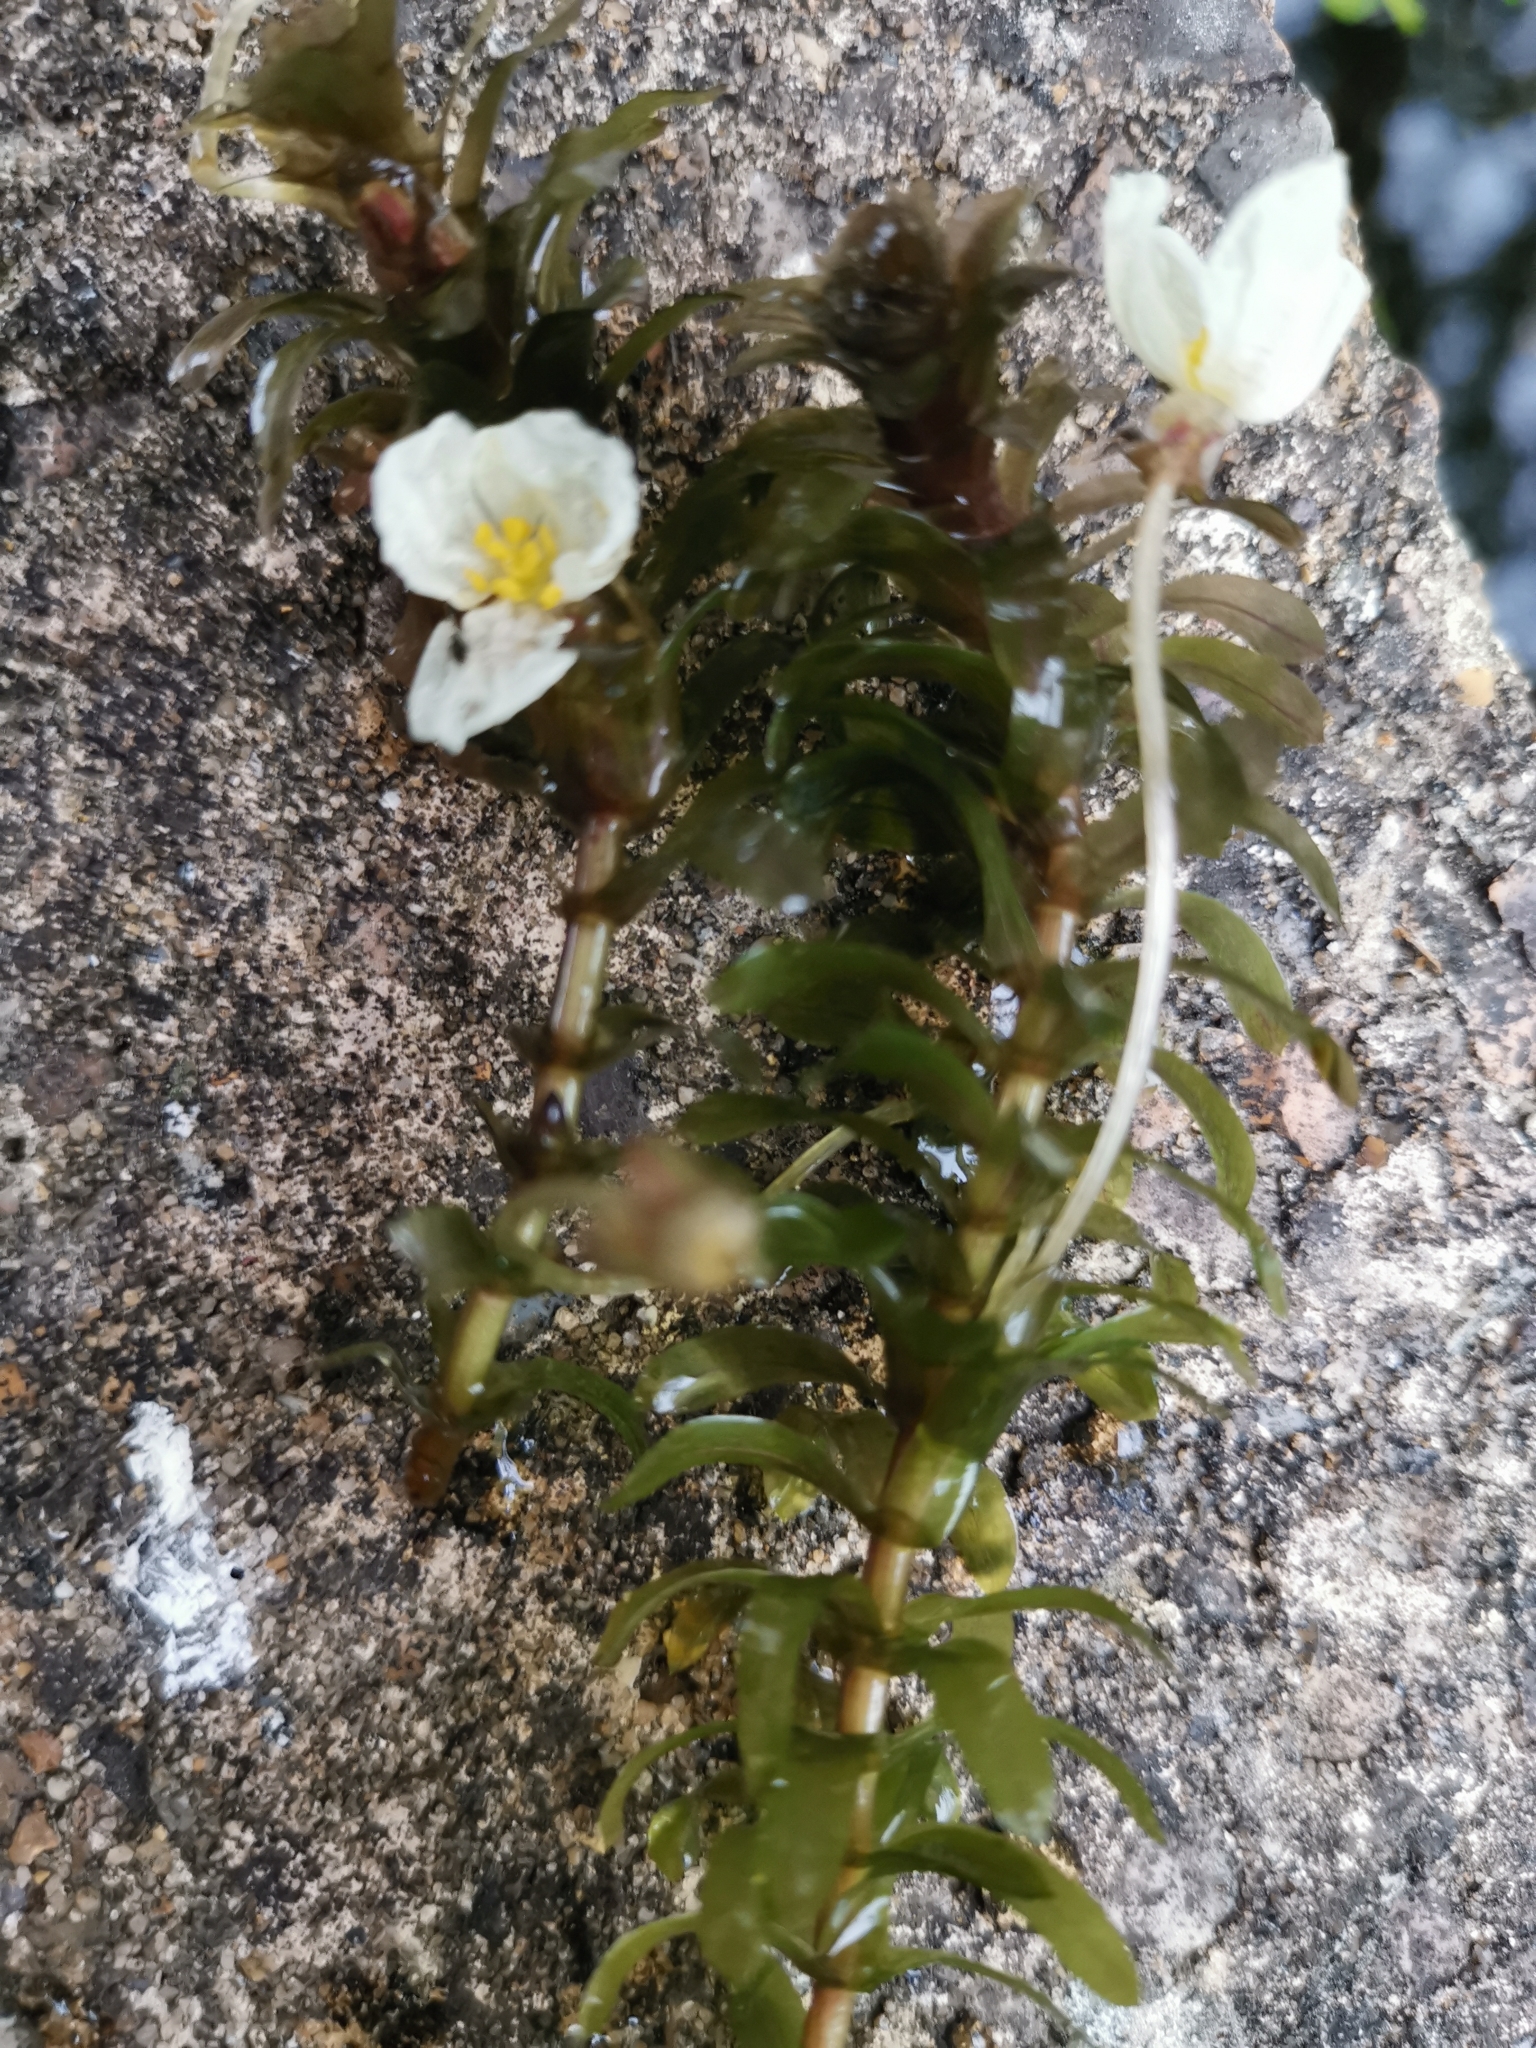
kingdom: Plantae
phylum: Tracheophyta
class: Liliopsida
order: Alismatales
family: Hydrocharitaceae
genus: Elodea
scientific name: Elodea densa
